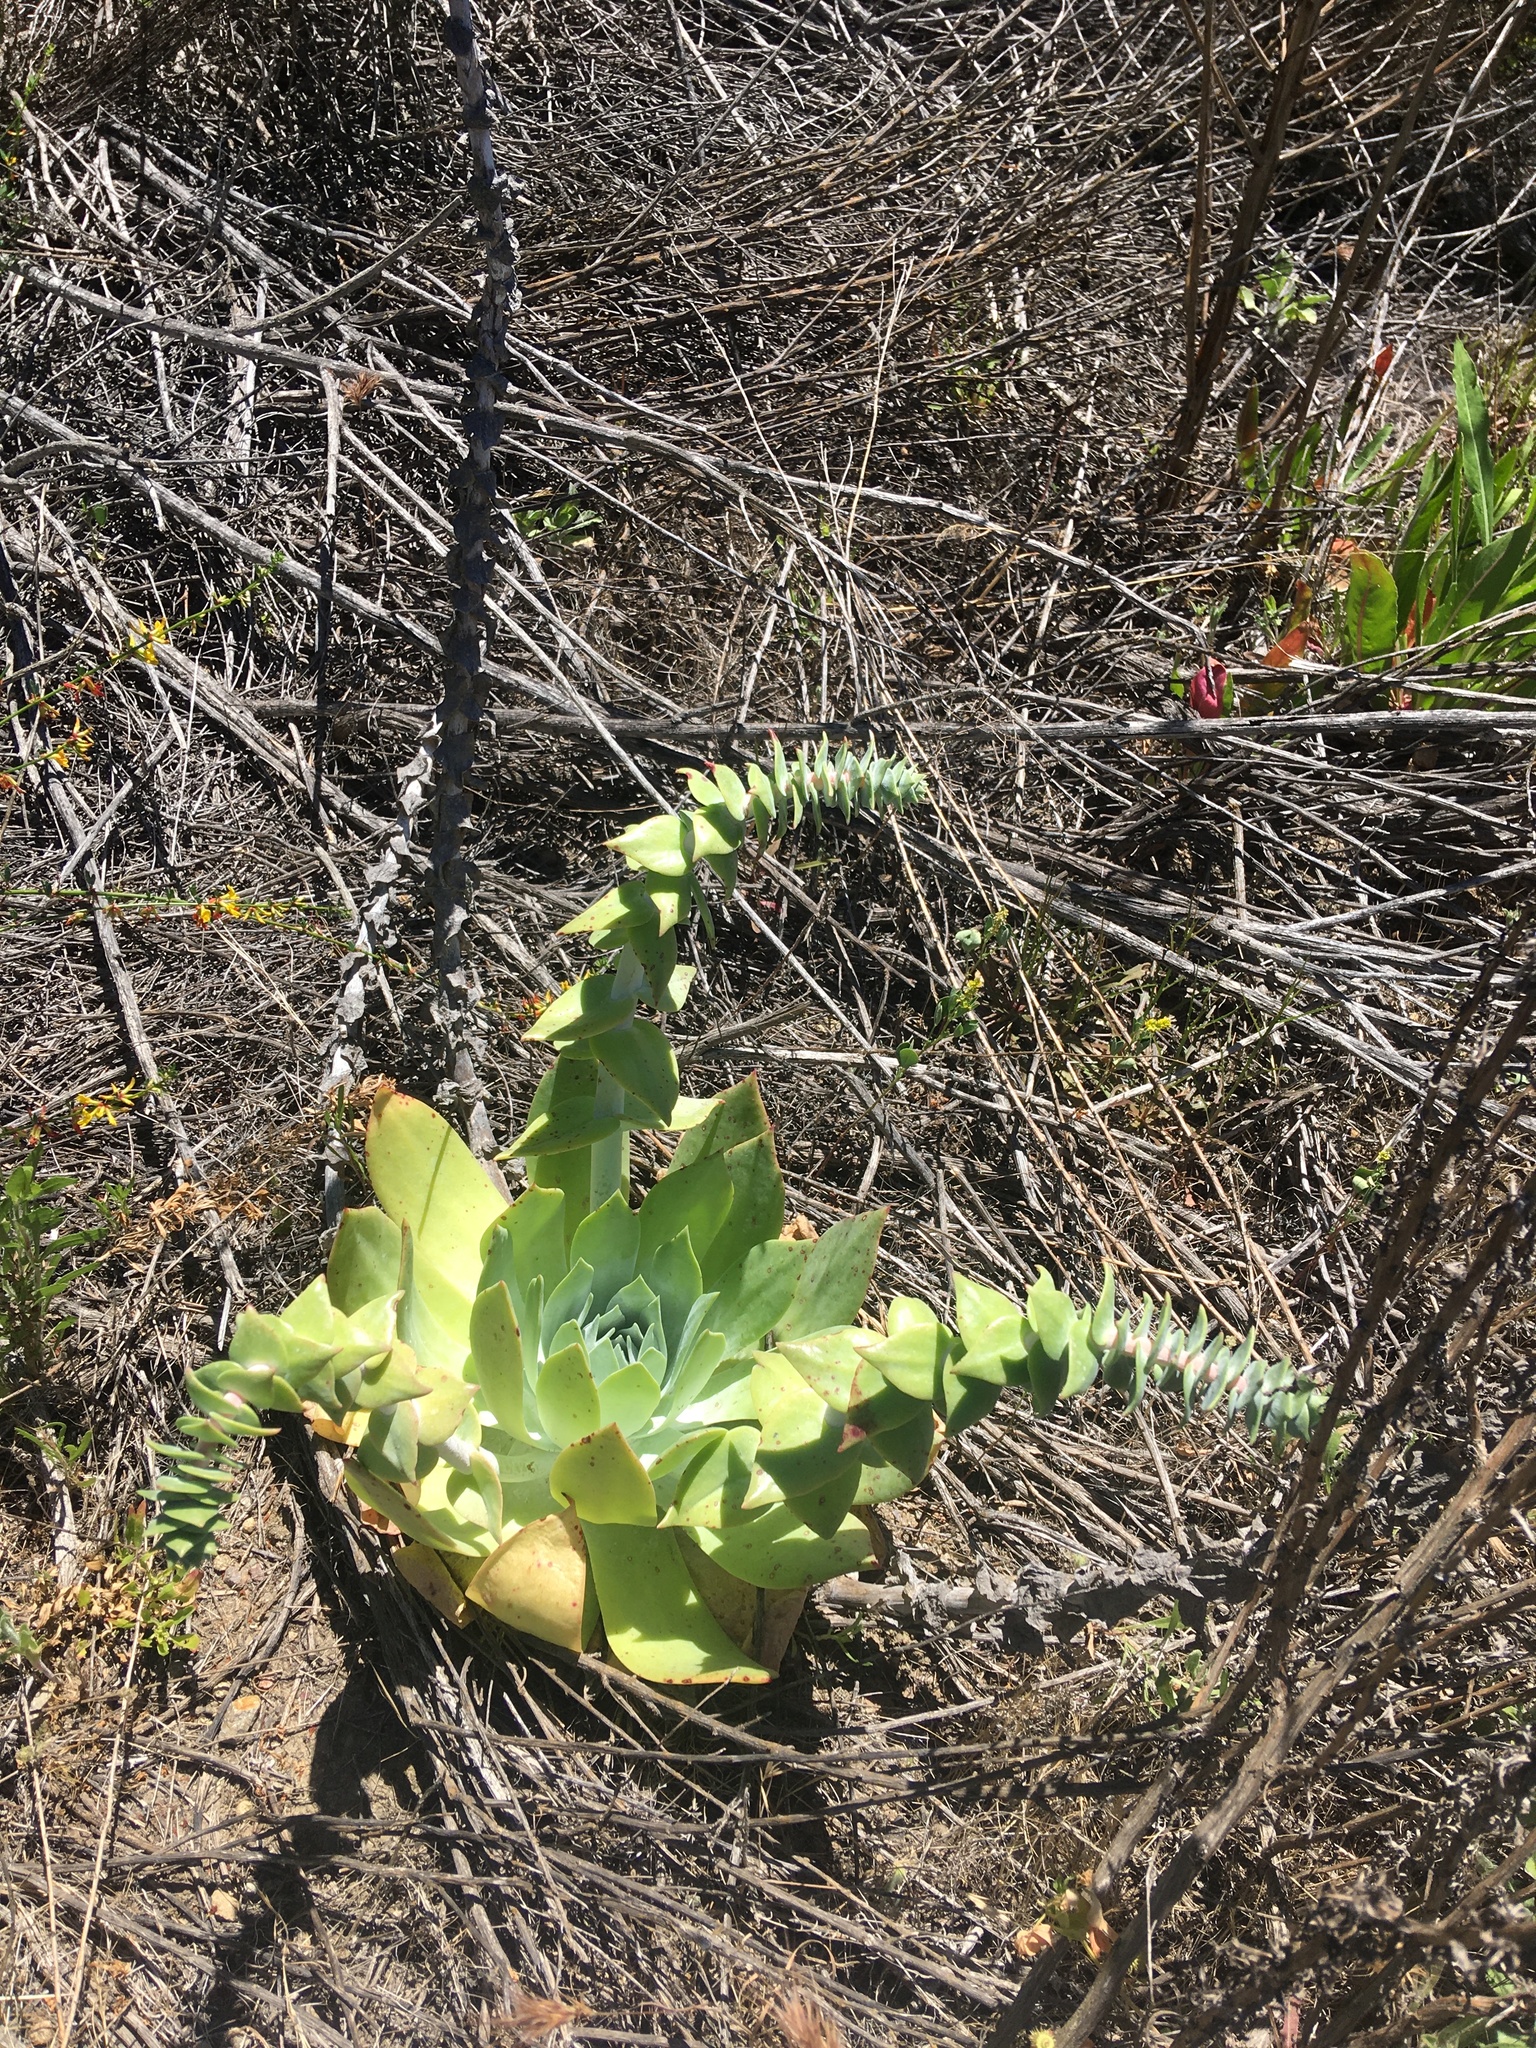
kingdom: Plantae
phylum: Tracheophyta
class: Magnoliopsida
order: Saxifragales
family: Crassulaceae
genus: Dudleya
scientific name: Dudleya pulverulenta
